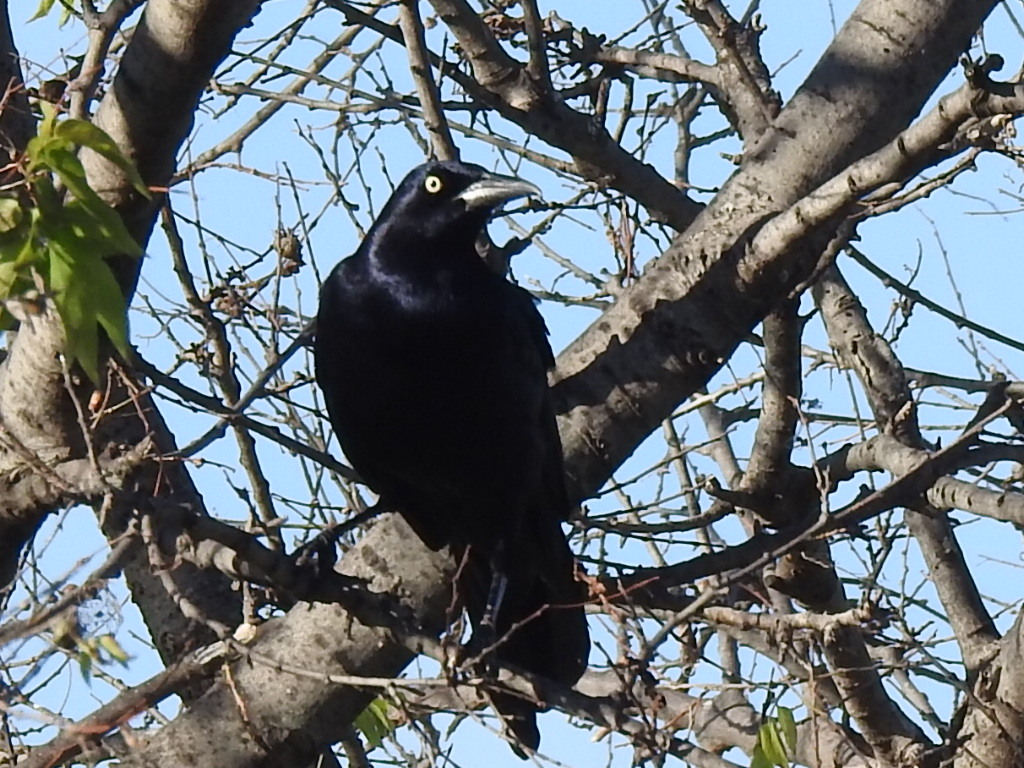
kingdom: Animalia
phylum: Chordata
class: Aves
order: Passeriformes
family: Icteridae
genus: Quiscalus
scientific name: Quiscalus mexicanus
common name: Great-tailed grackle
